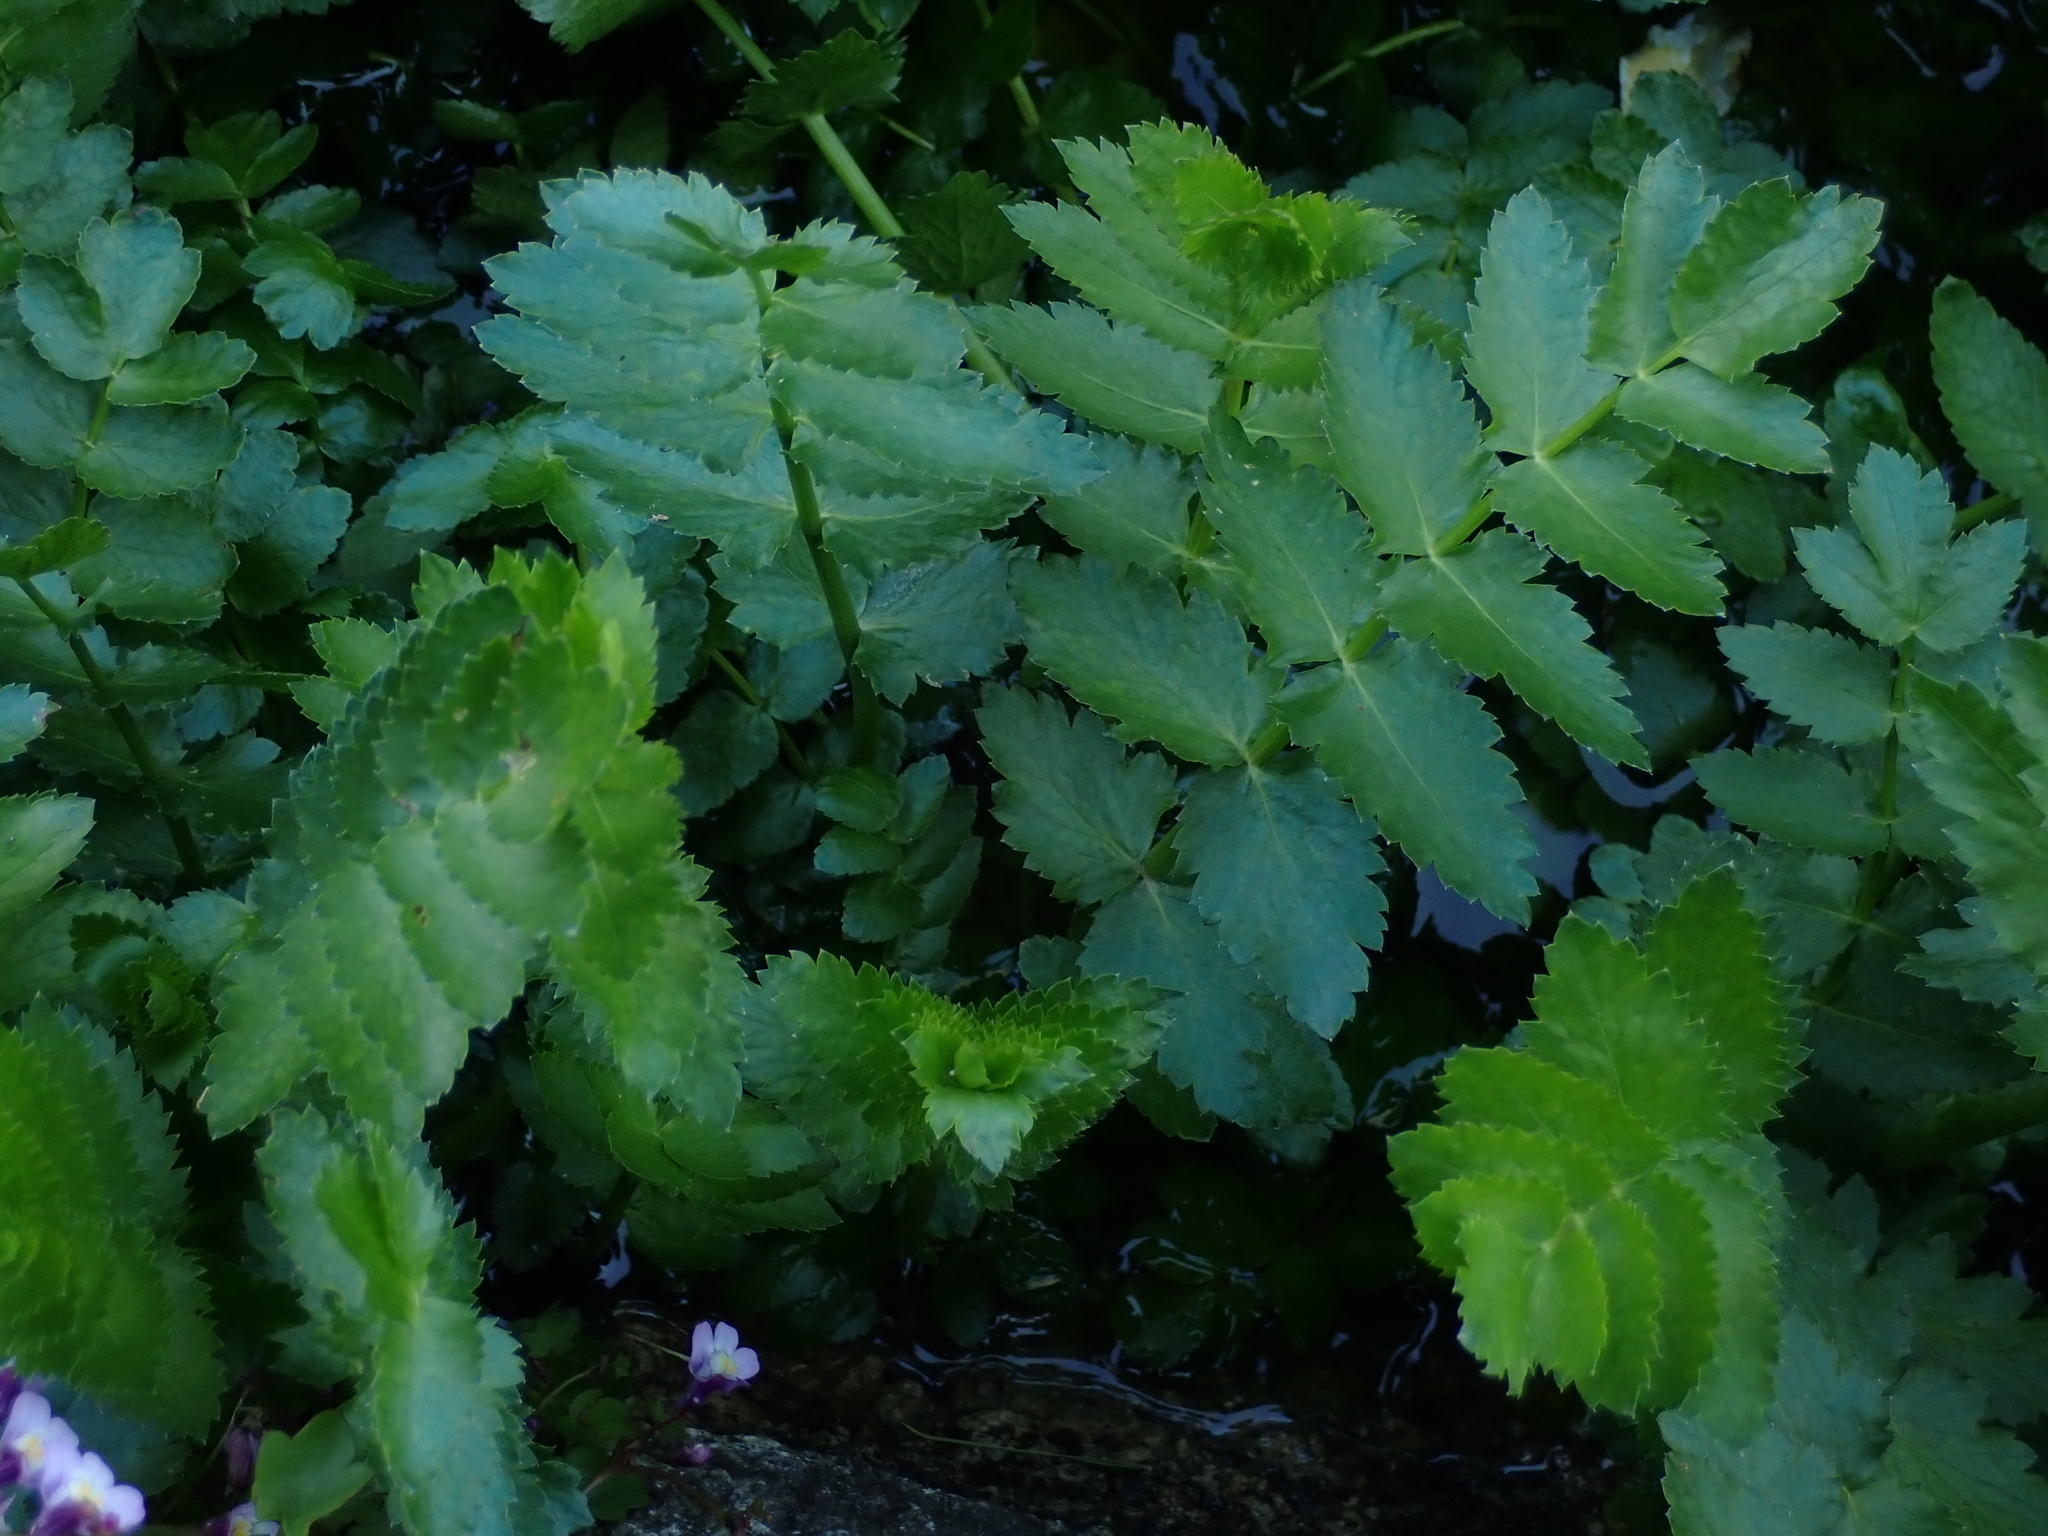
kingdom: Plantae
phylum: Tracheophyta
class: Magnoliopsida
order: Apiales
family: Apiaceae
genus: Berula
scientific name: Berula erecta
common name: Lesser water-parsnip
